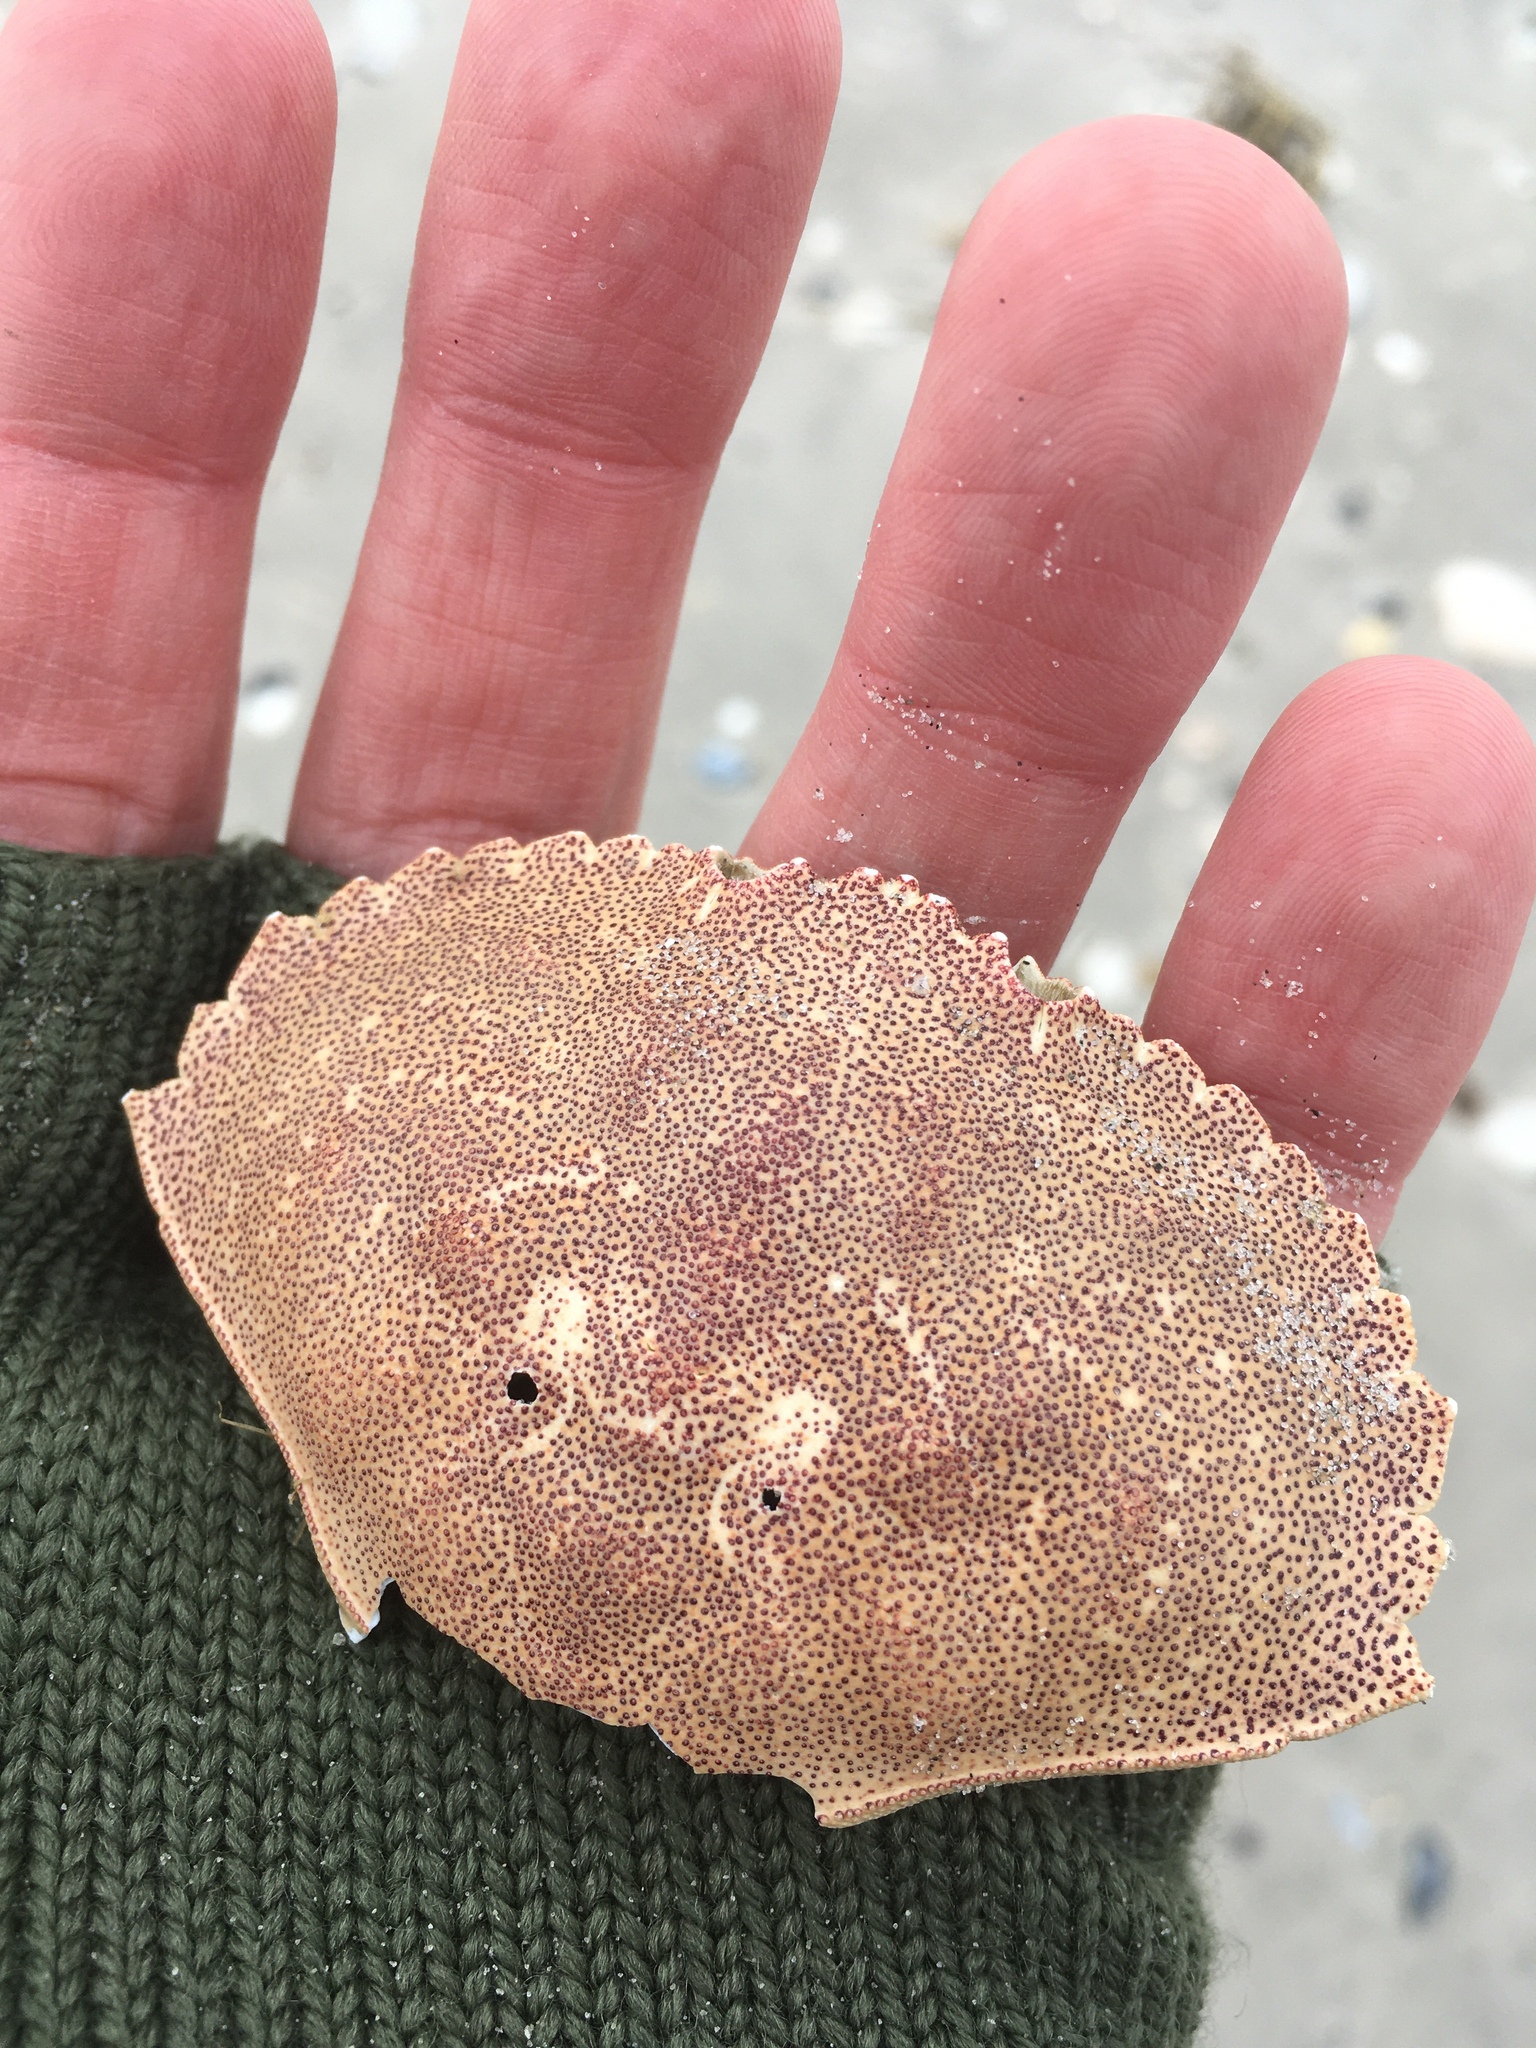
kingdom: Animalia
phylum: Arthropoda
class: Malacostraca
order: Decapoda
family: Cancridae
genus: Cancer
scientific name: Cancer irroratus
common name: Atlantic rock crab
